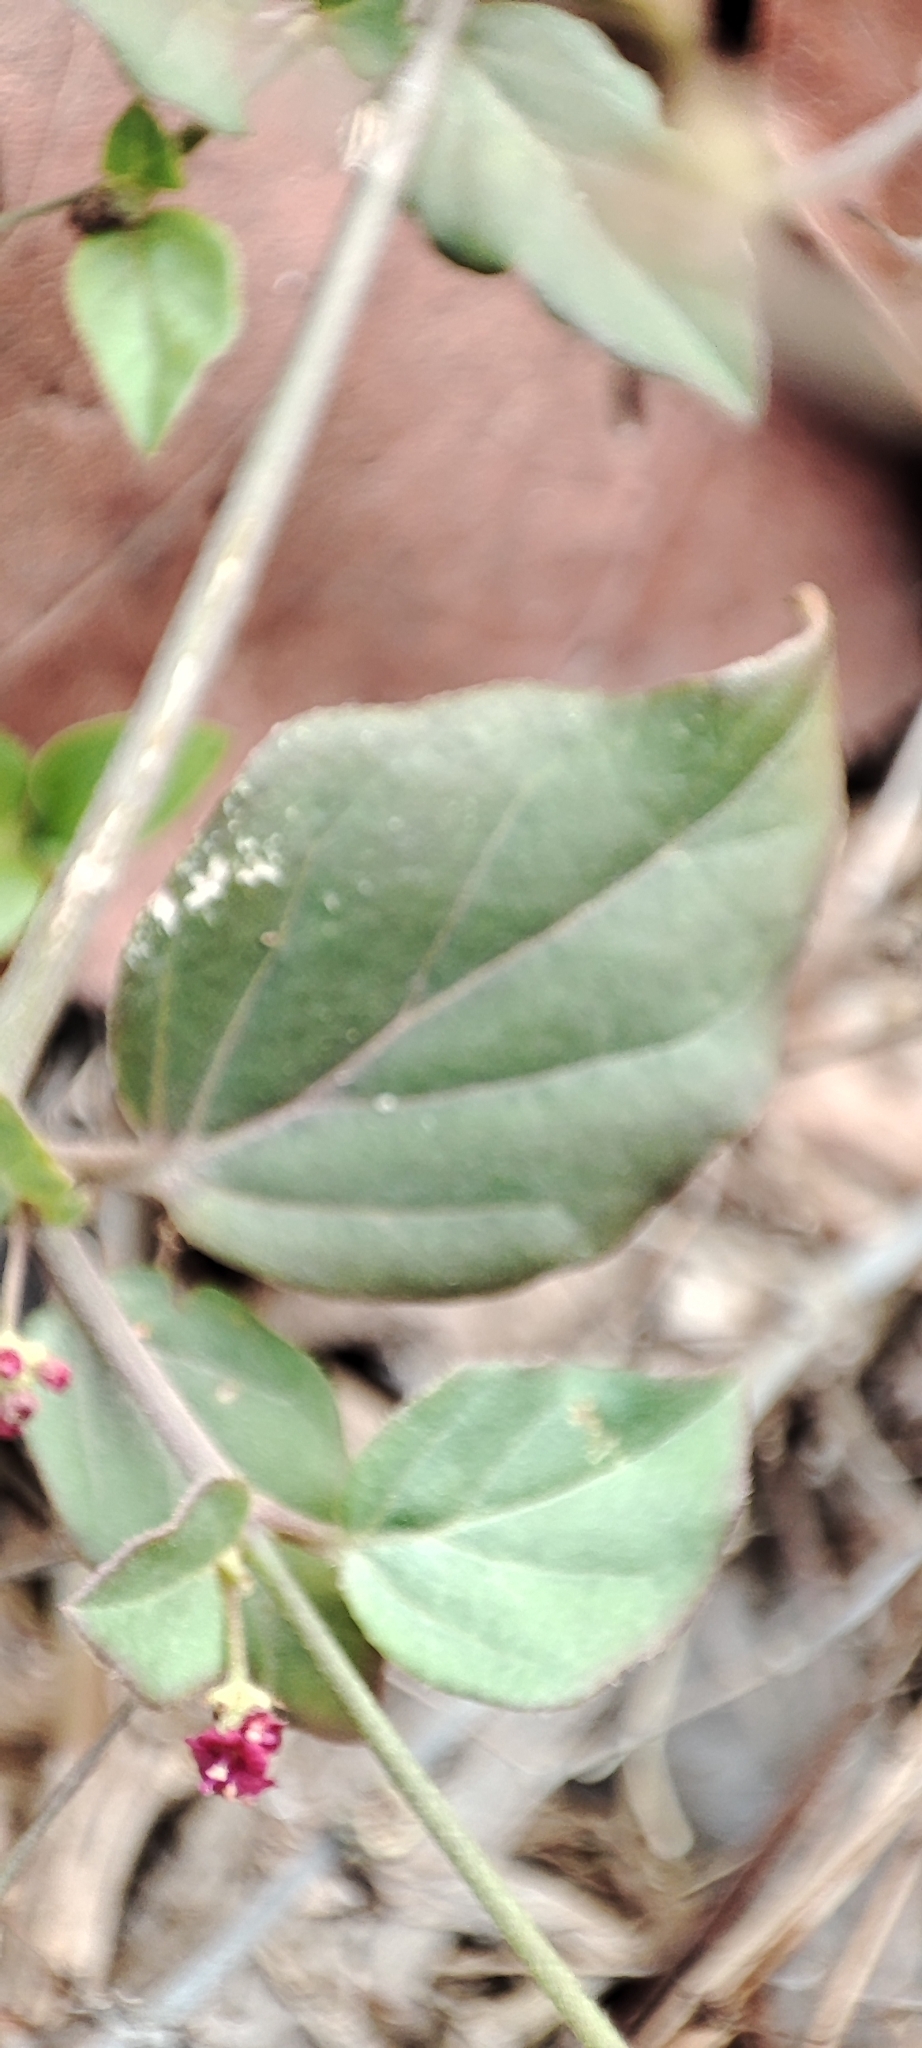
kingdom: Plantae
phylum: Tracheophyta
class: Magnoliopsida
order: Caryophyllales
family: Nyctaginaceae
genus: Boerhavia
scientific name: Boerhavia erecta
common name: Erect spiderling
